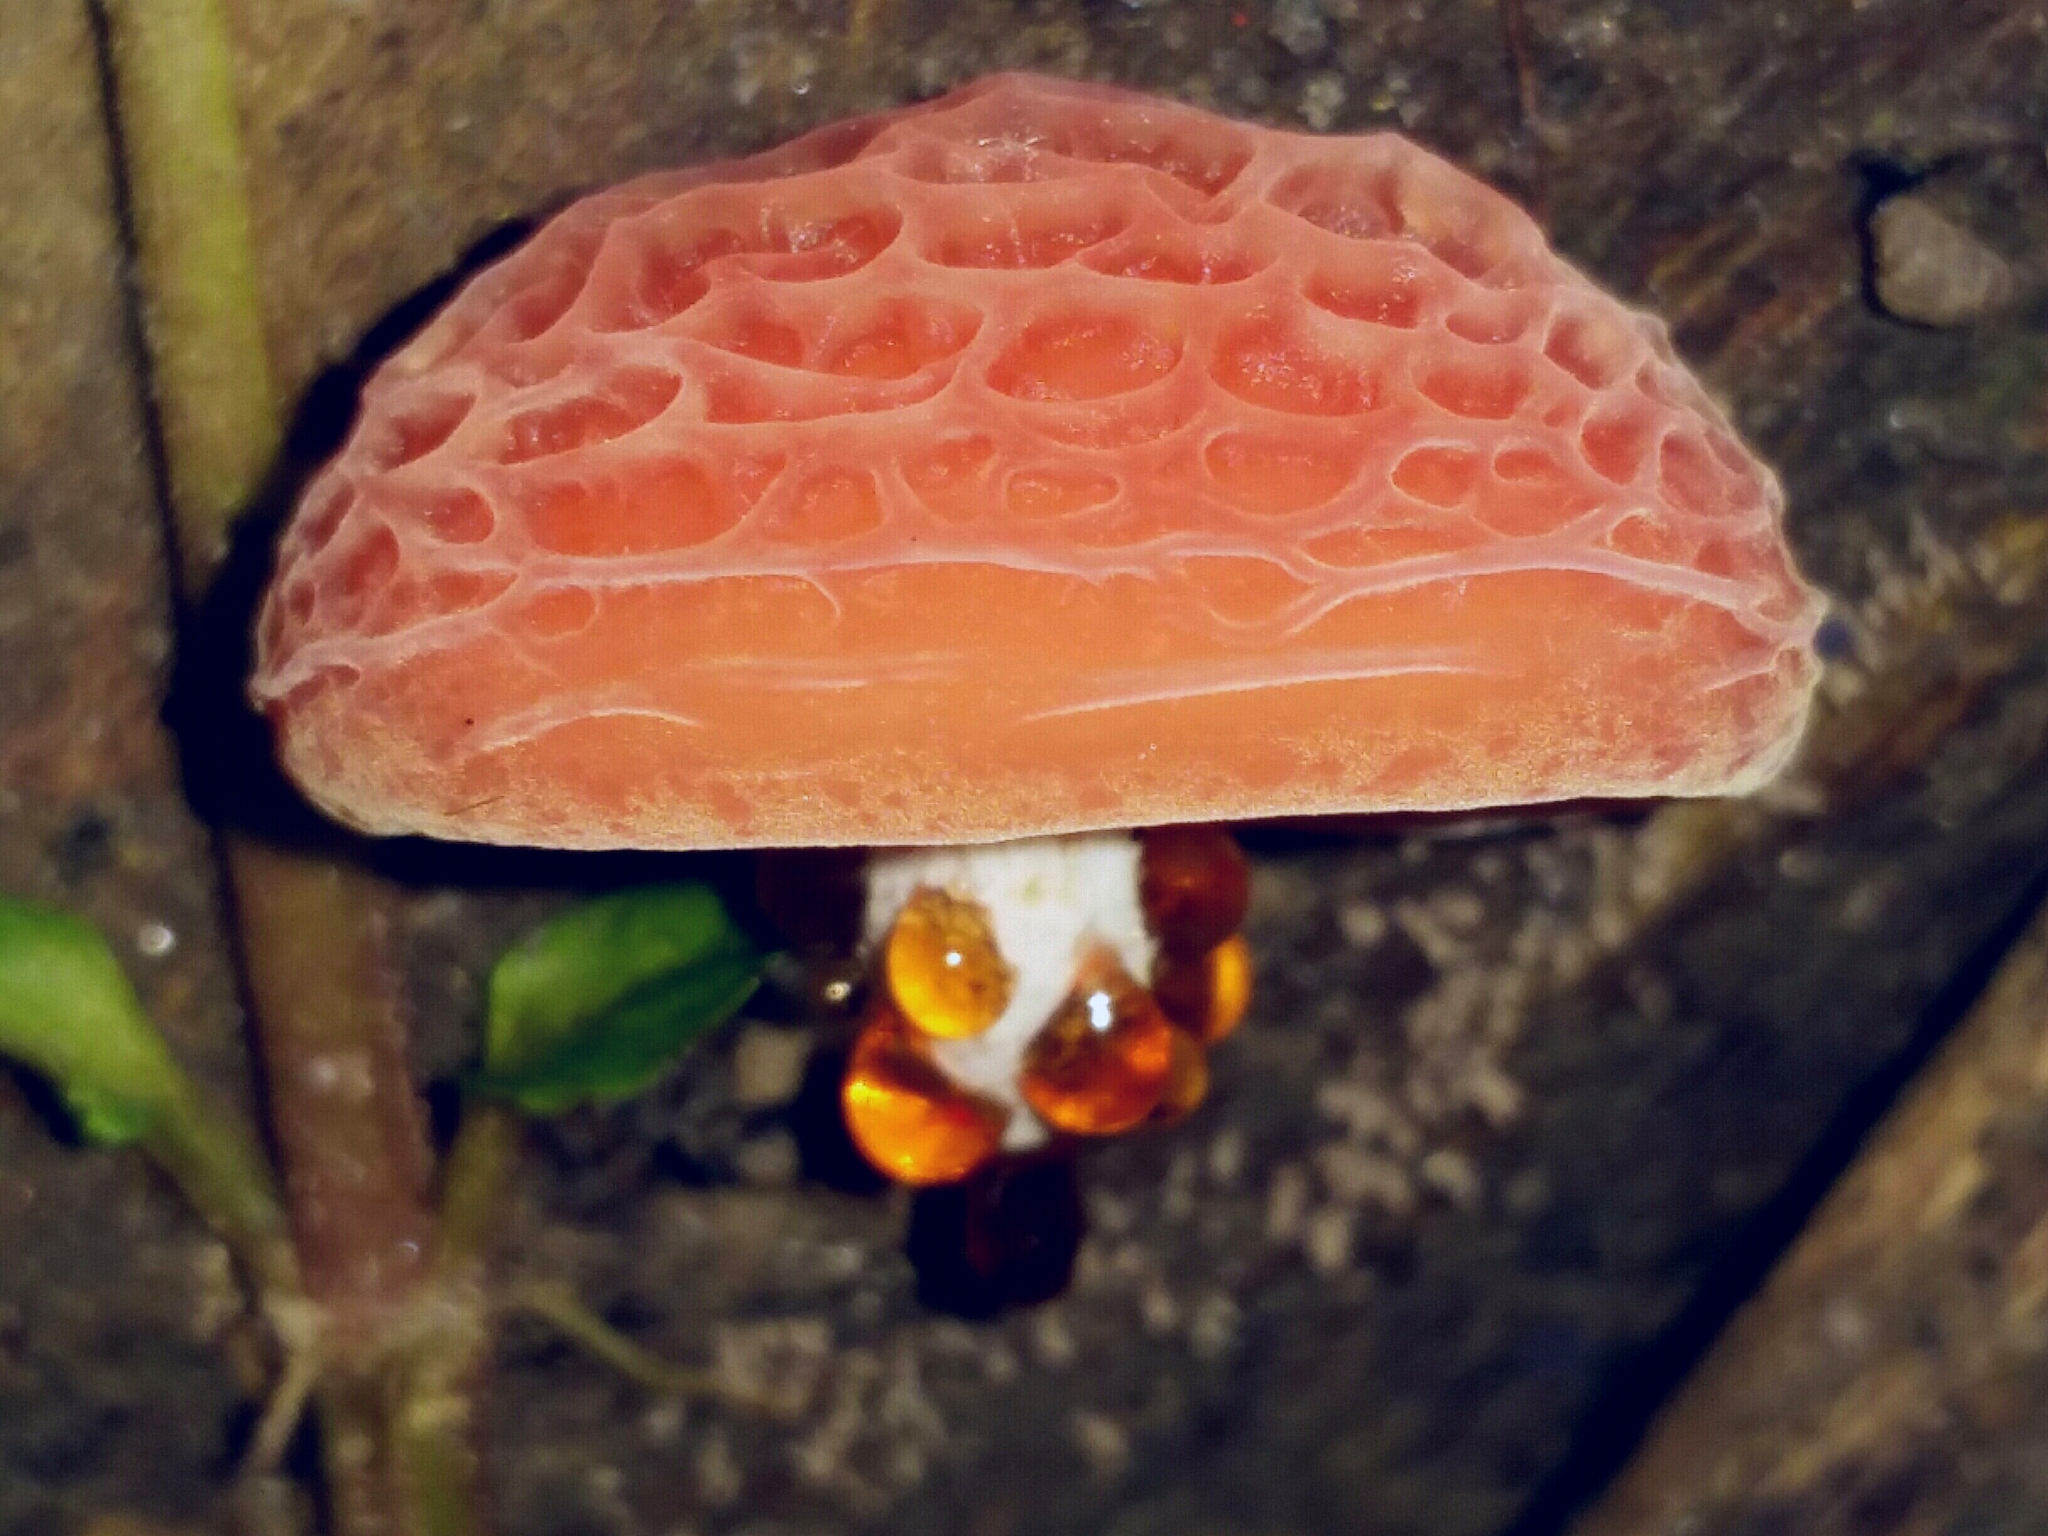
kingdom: Fungi
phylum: Basidiomycota
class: Agaricomycetes
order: Agaricales
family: Physalacriaceae
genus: Rhodotus
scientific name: Rhodotus palmatus
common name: Wrinkled peach
